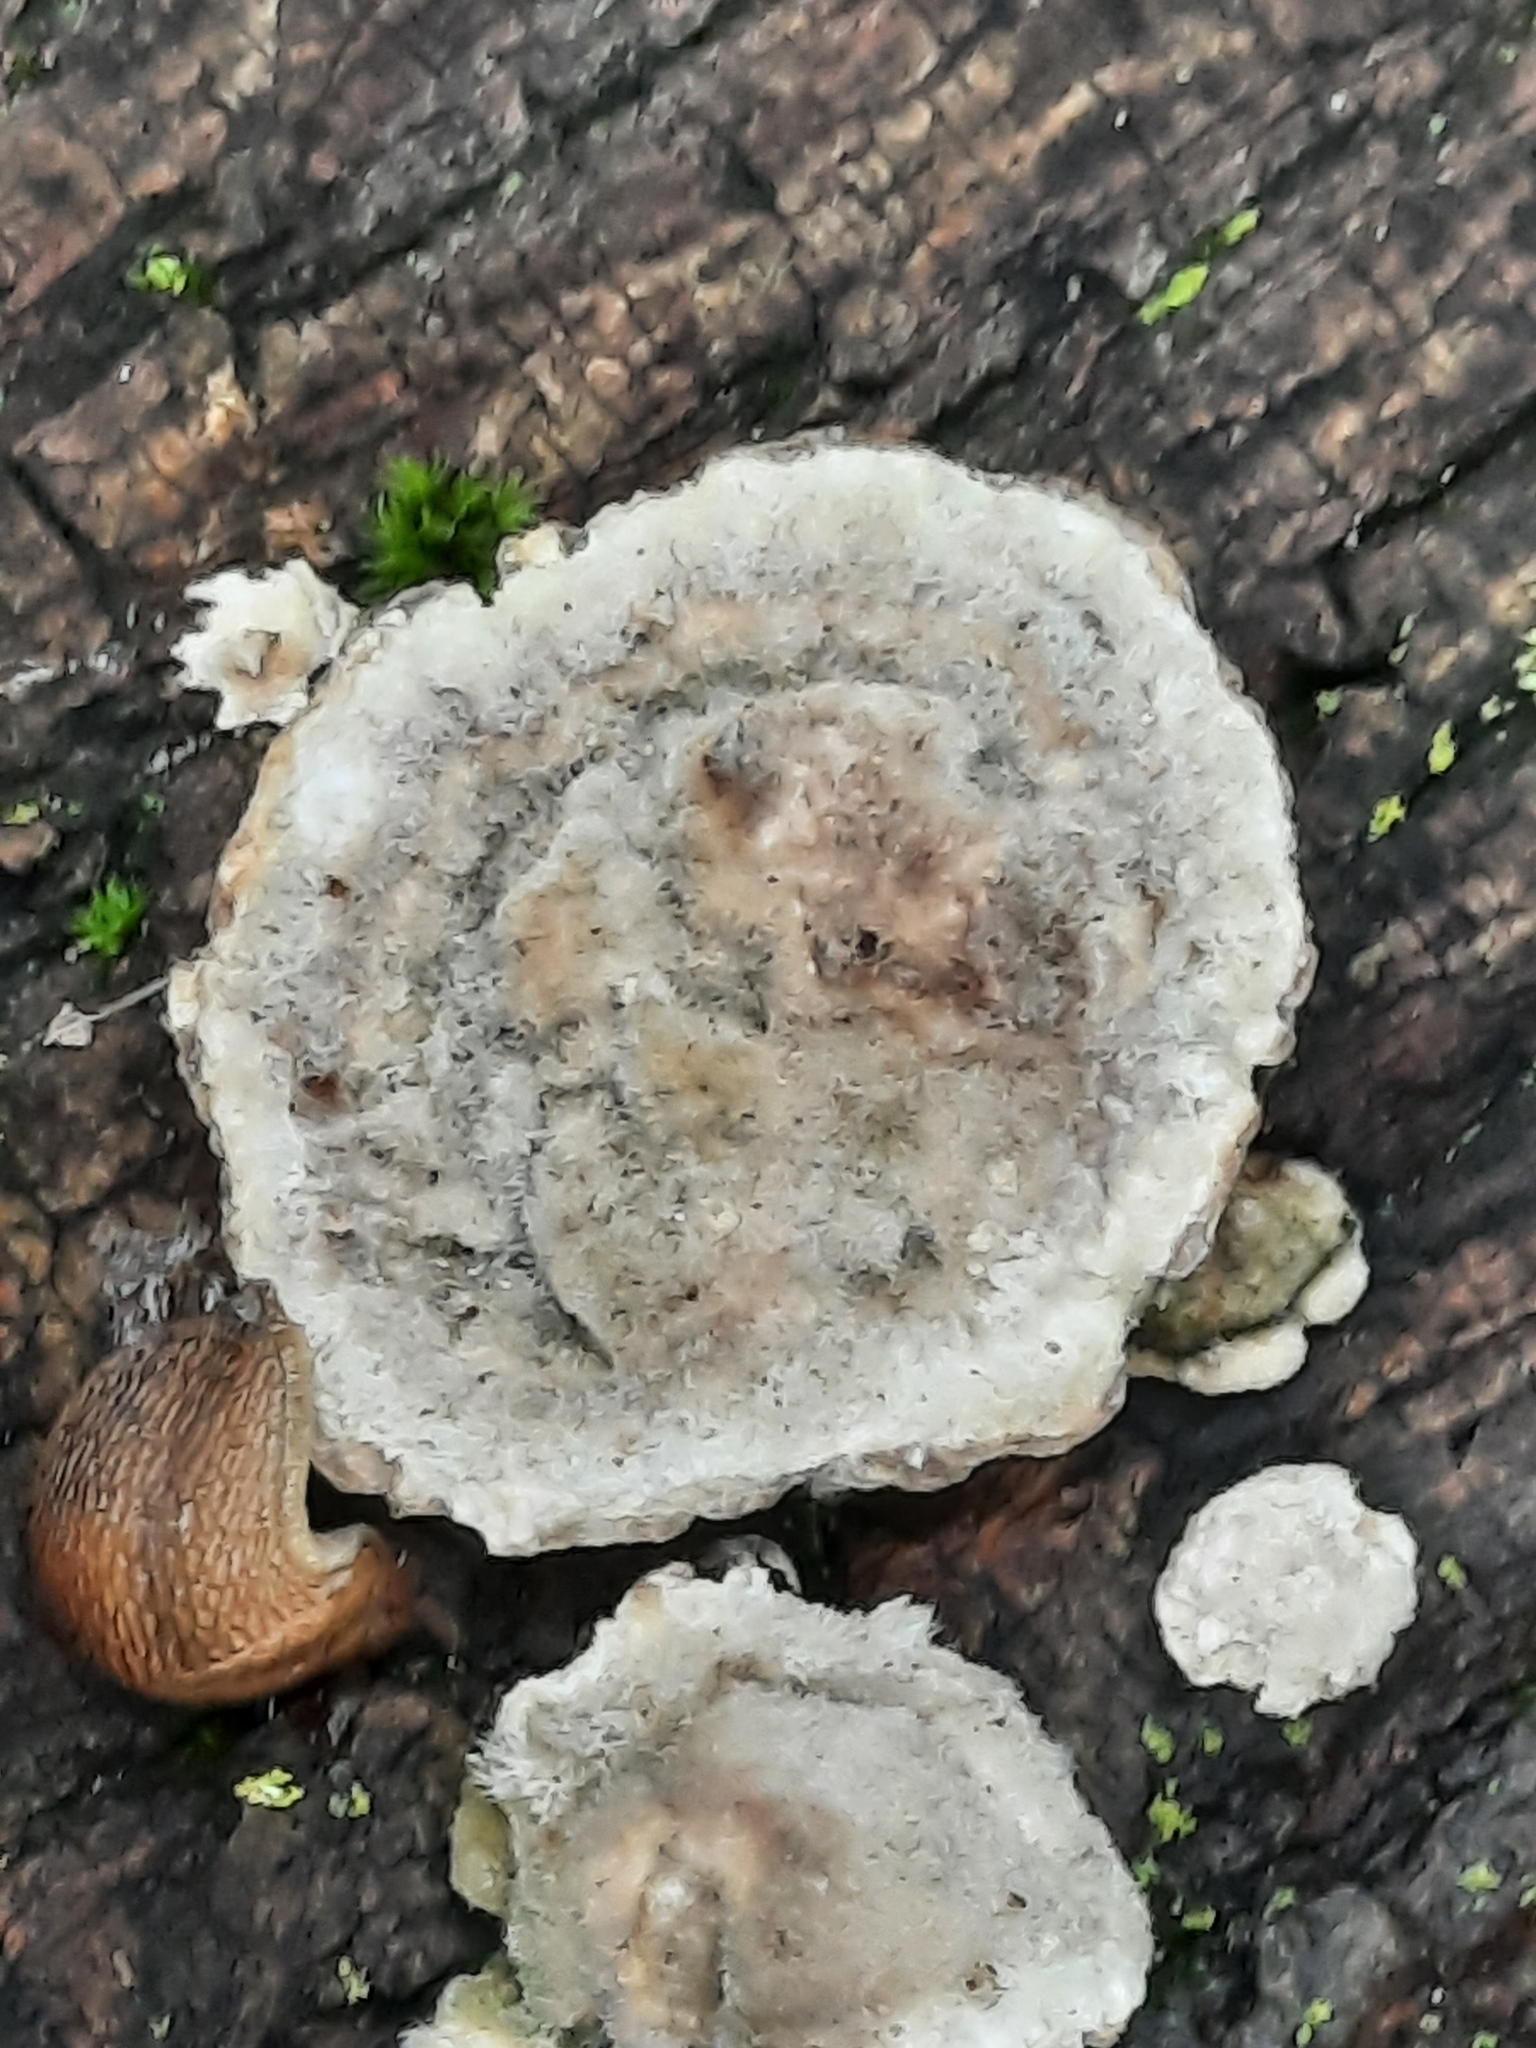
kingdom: Fungi
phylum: Basidiomycota
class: Agaricomycetes
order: Polyporales
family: Polyporaceae
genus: Trametes
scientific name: Trametes hirsuta
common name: Hairy bracket
